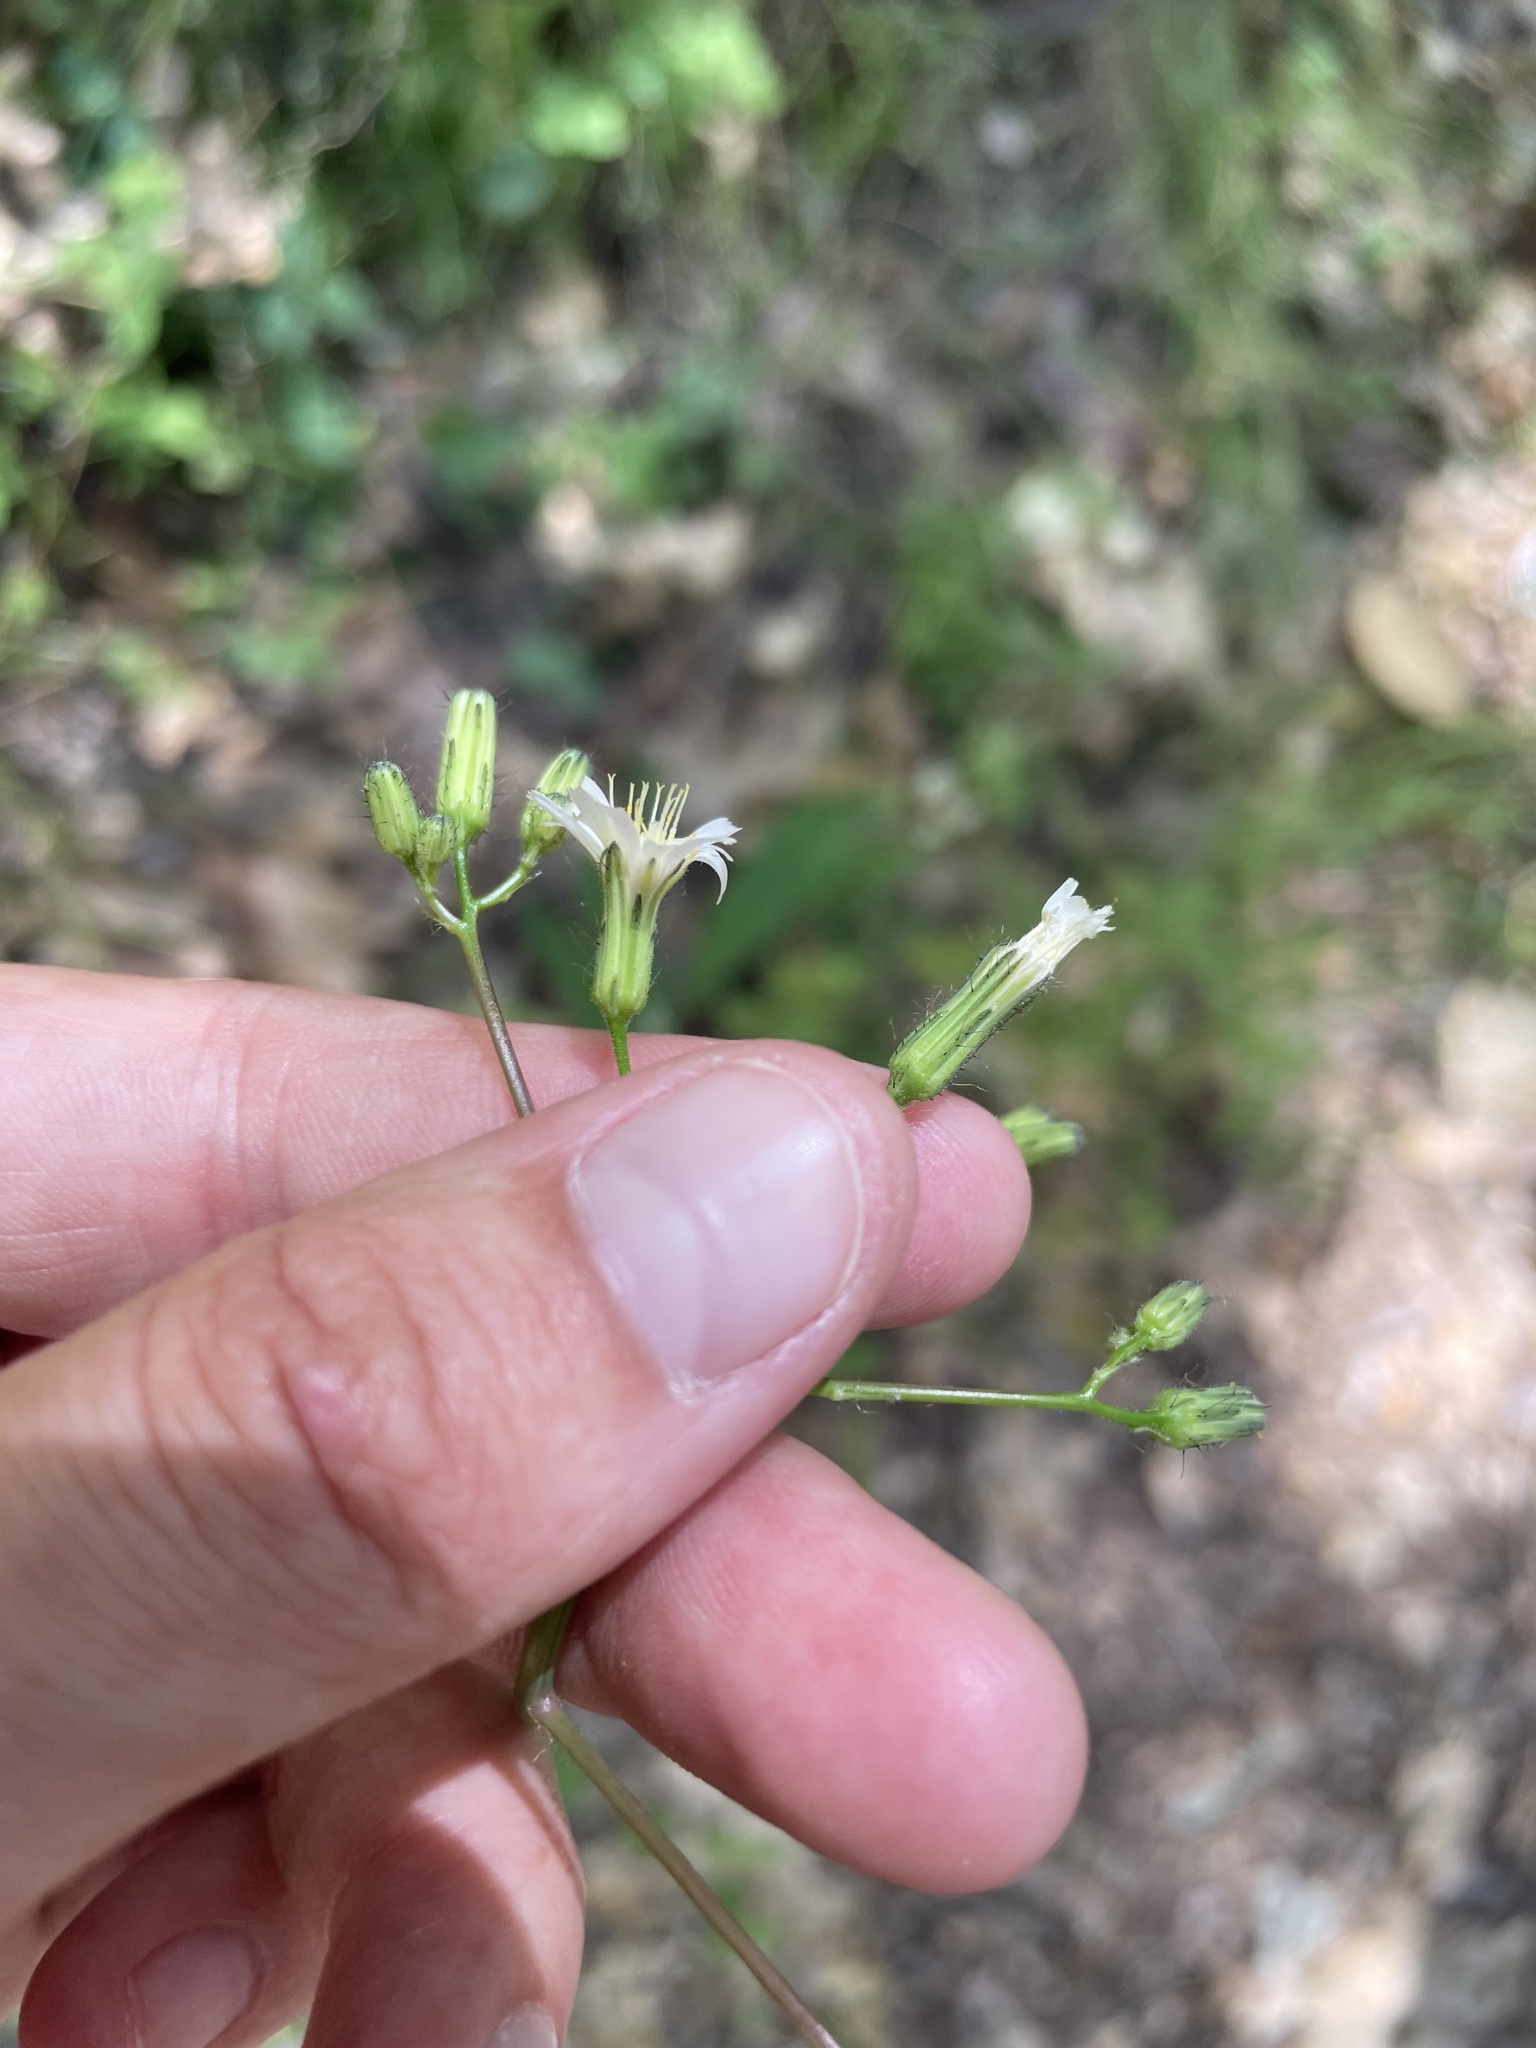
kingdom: Plantae
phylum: Tracheophyta
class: Magnoliopsida
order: Asterales
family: Asteraceae
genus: Hieracium
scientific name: Hieracium albiflorum
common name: White hawkweed
